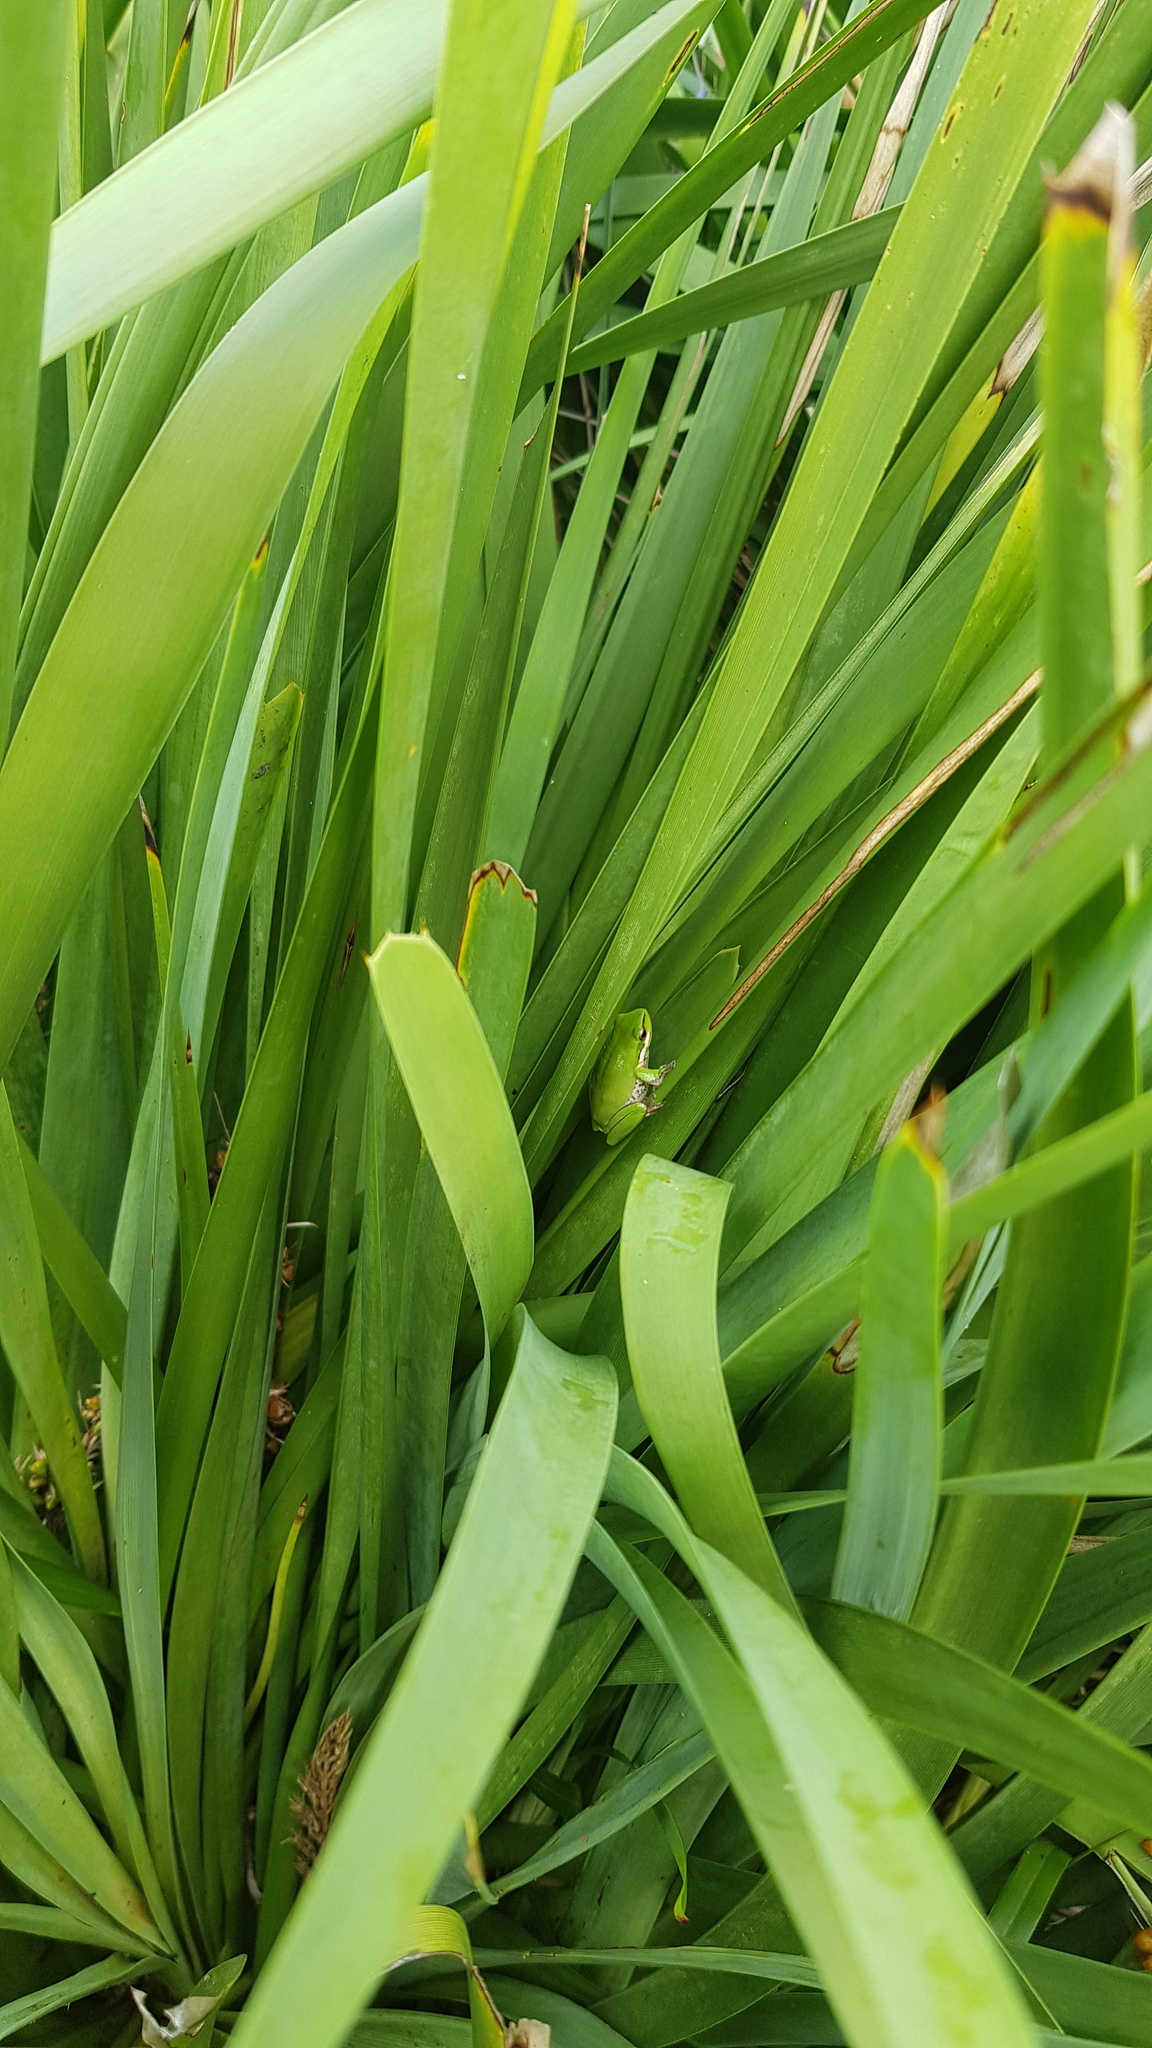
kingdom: Animalia
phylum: Chordata
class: Amphibia
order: Anura
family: Pelodryadidae
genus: Litoria
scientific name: Litoria fallax
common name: Eastern dwarf treefrog
